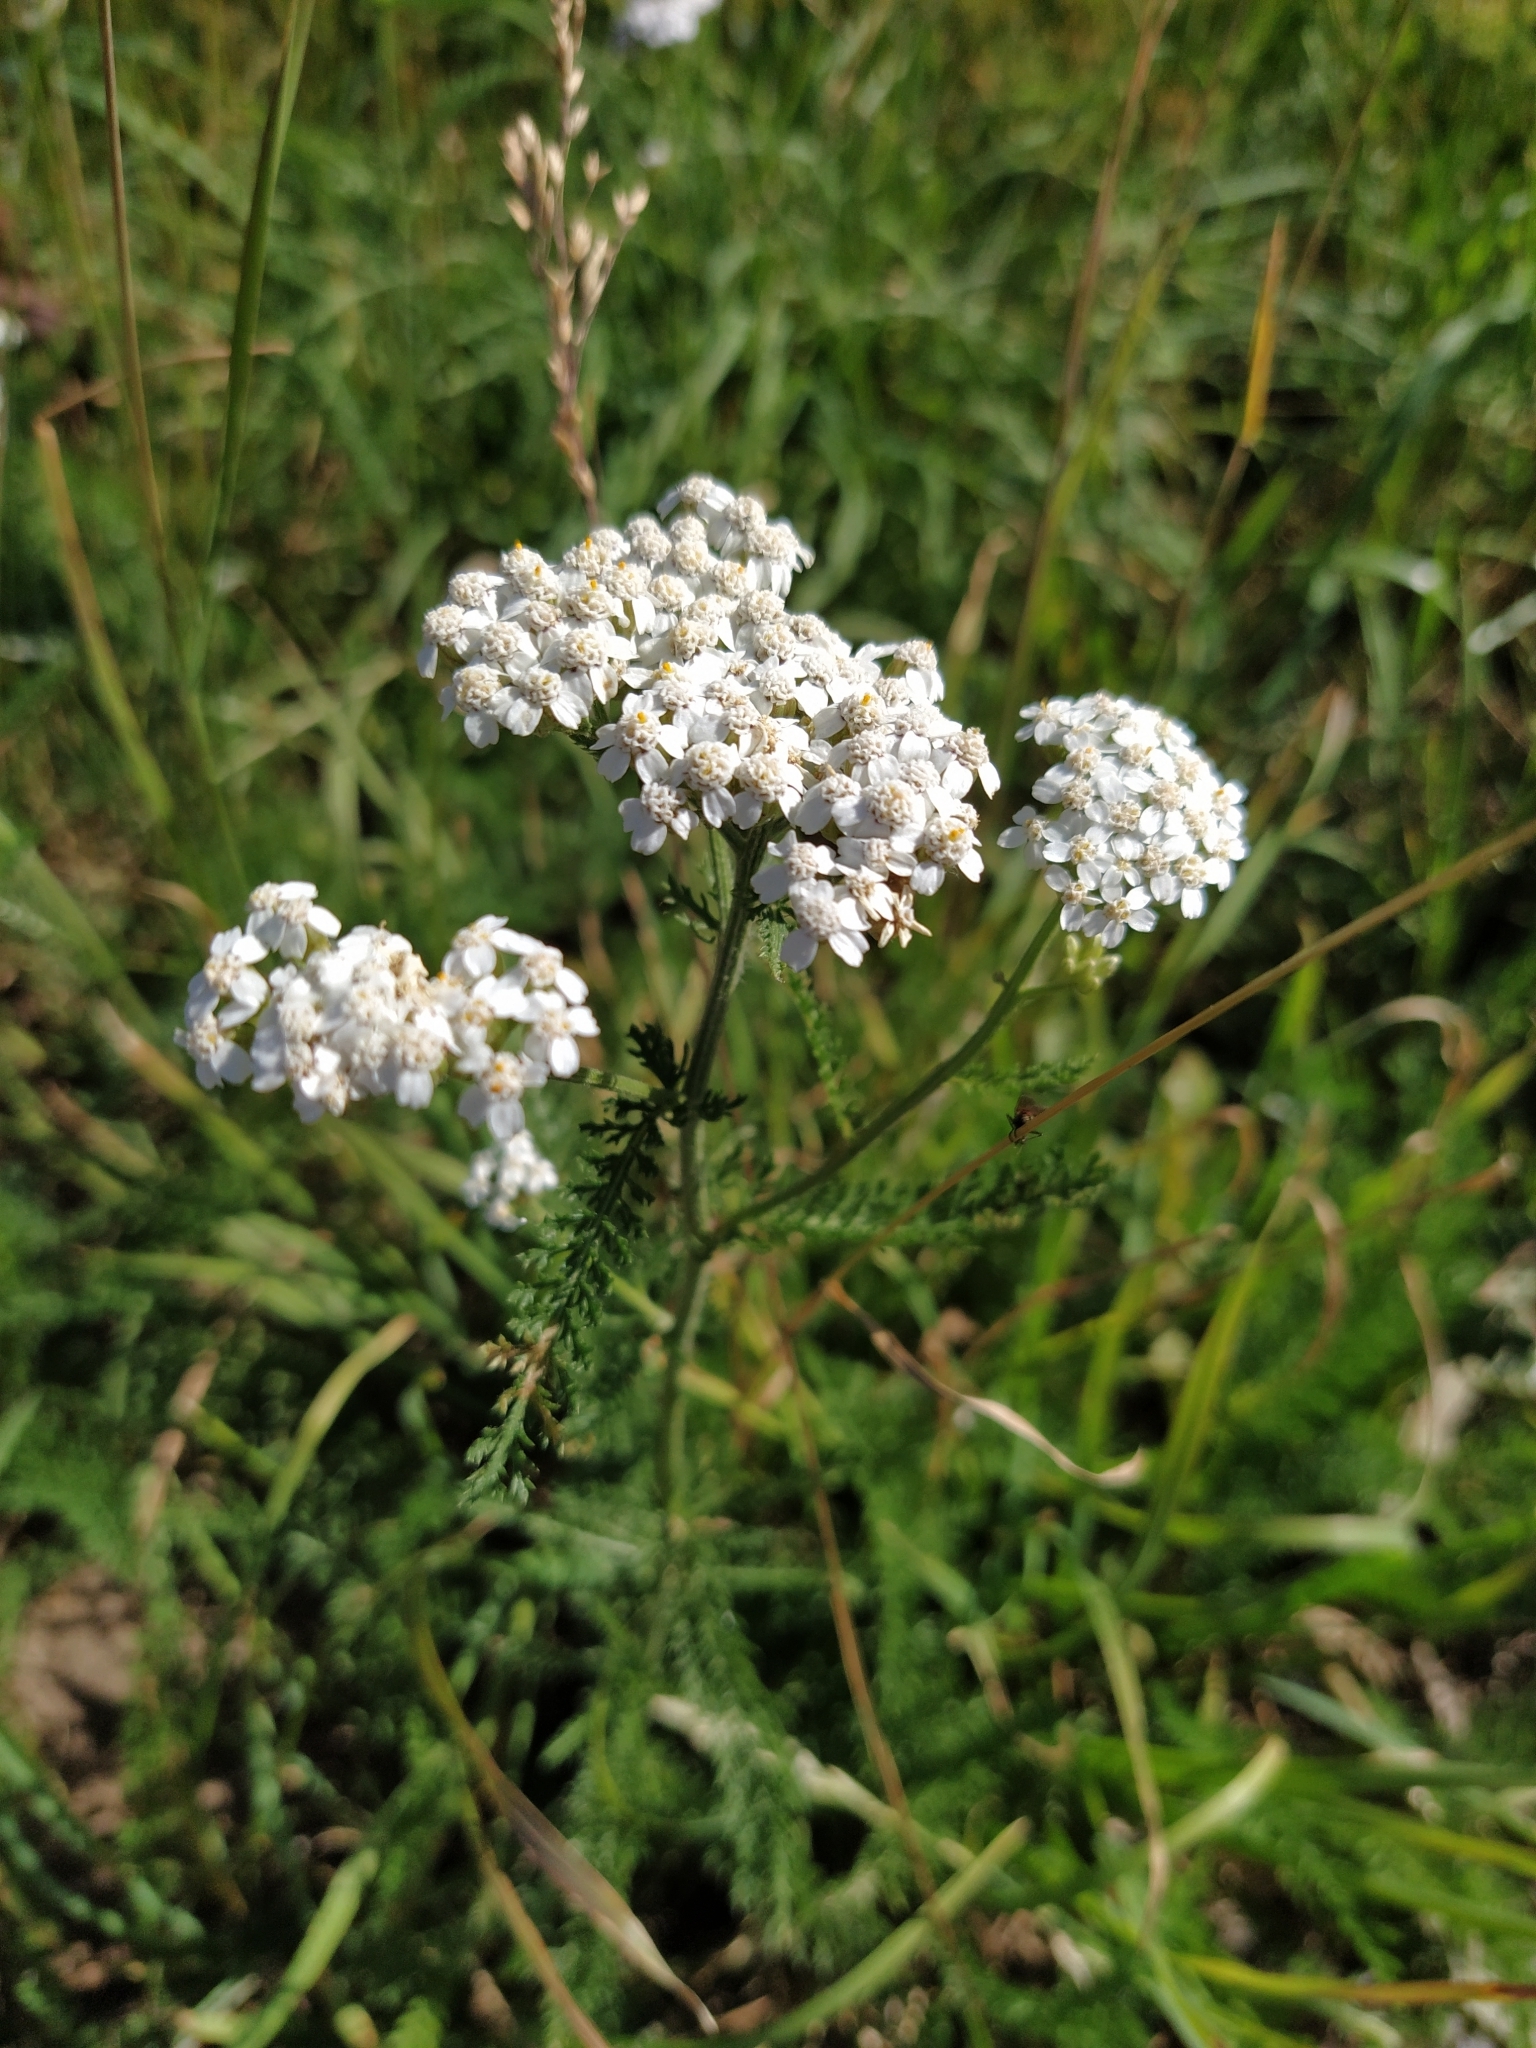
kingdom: Plantae
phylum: Tracheophyta
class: Magnoliopsida
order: Asterales
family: Asteraceae
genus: Achillea
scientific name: Achillea millefolium
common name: Yarrow
